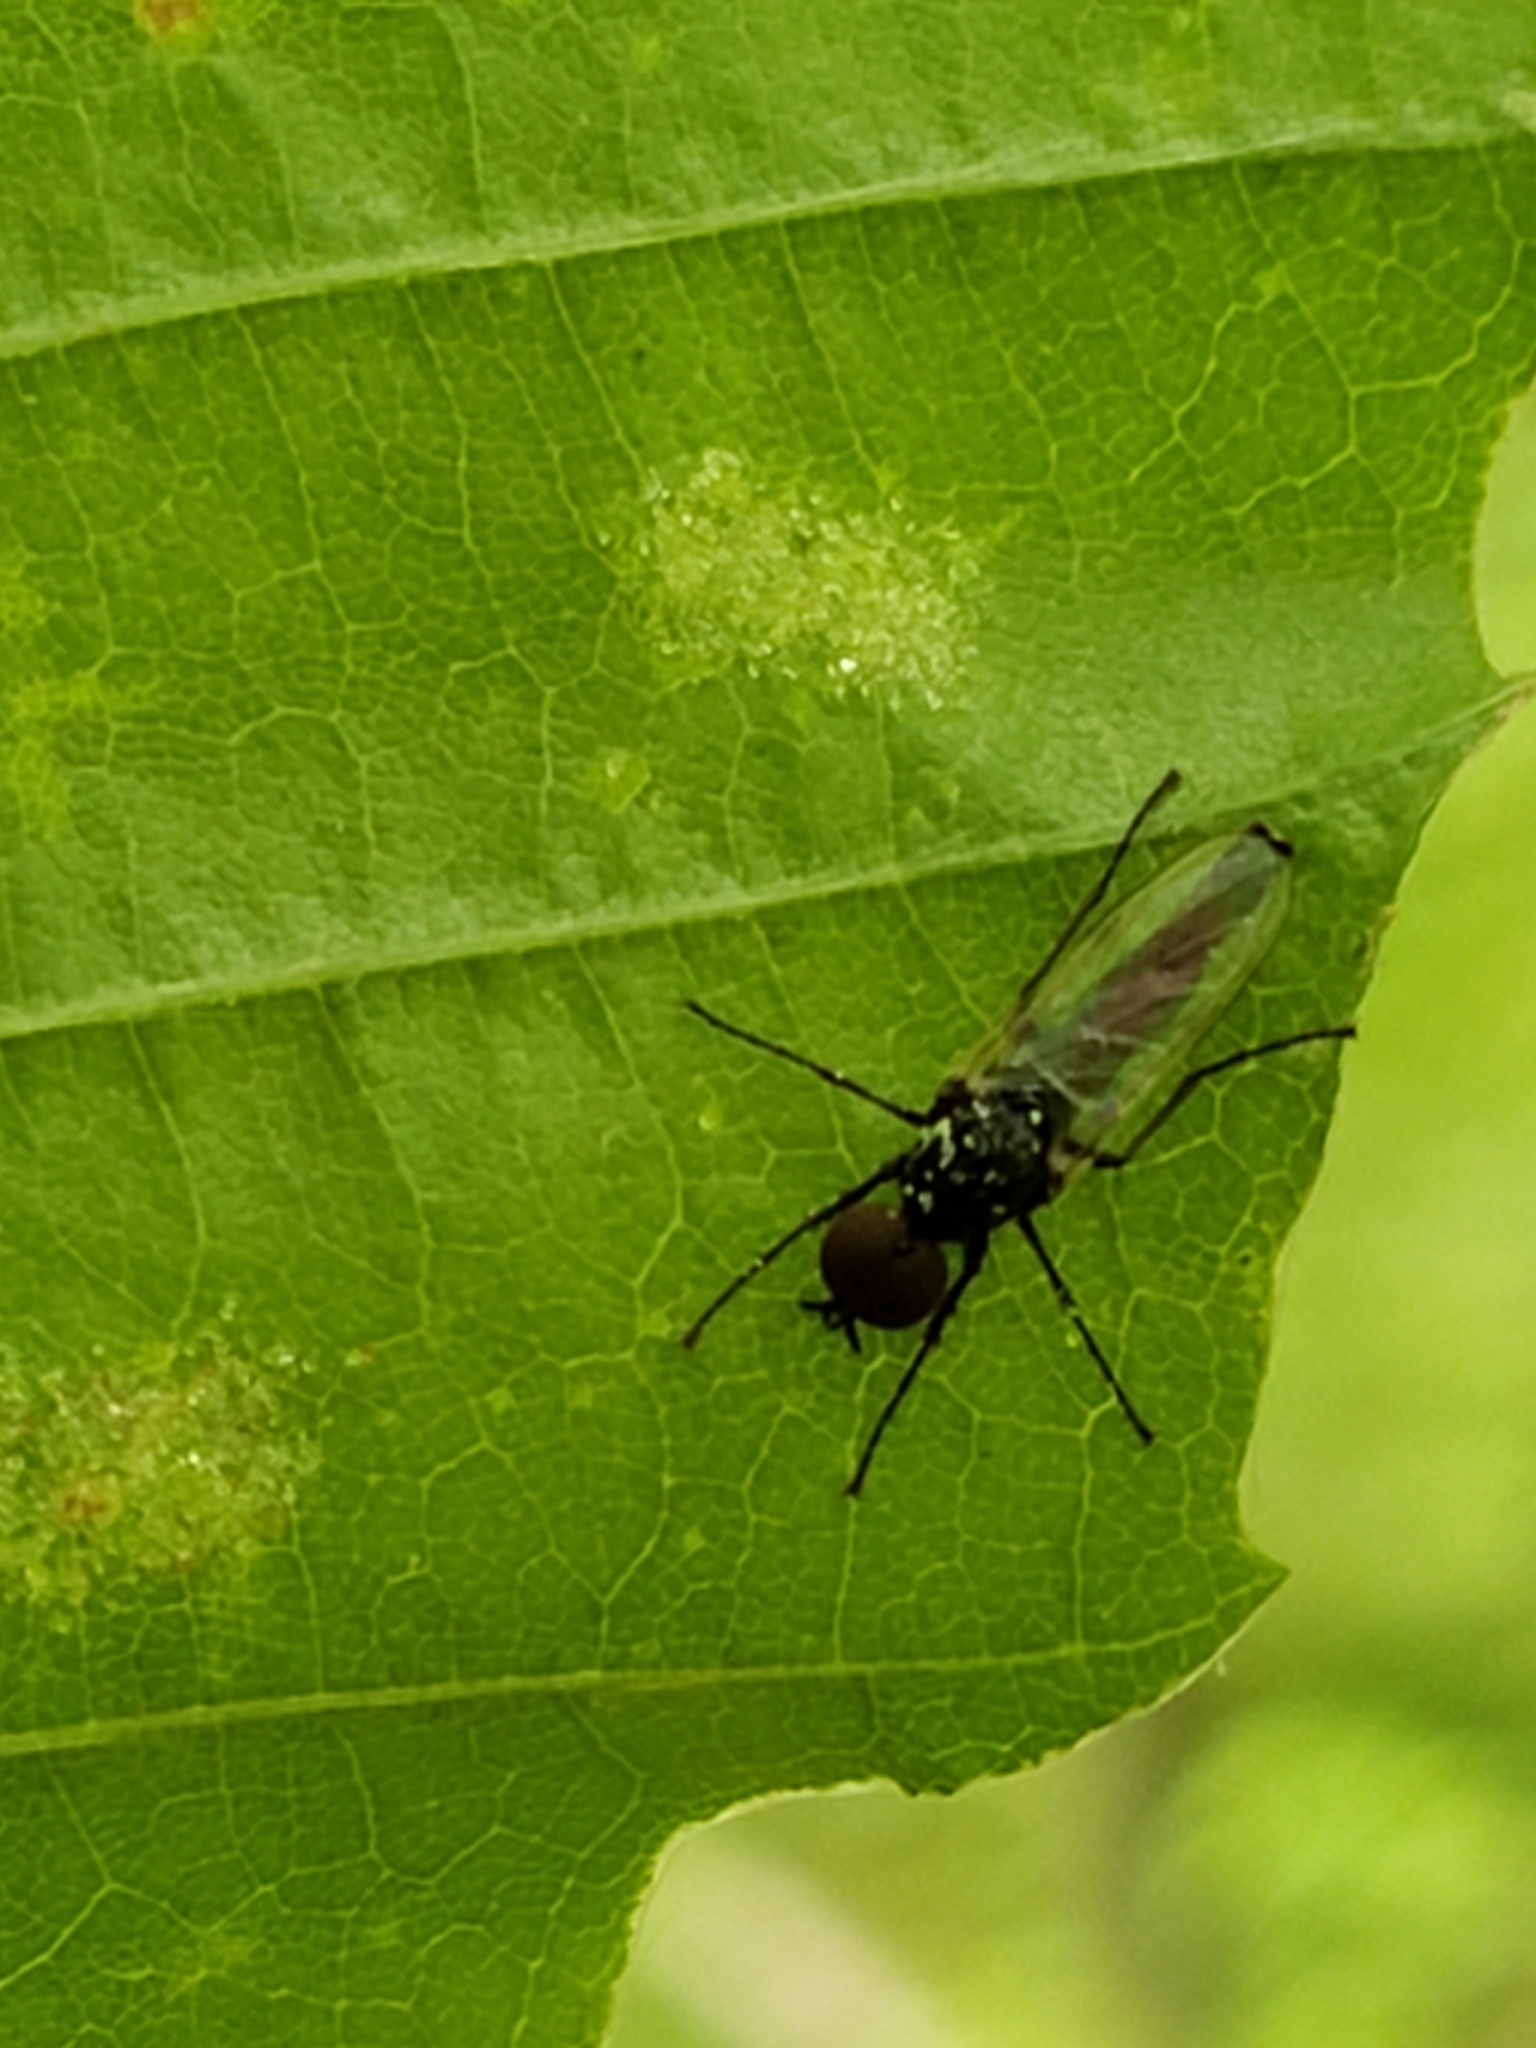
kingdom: Animalia
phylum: Arthropoda
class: Insecta
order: Diptera
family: Bibionidae
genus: Dilophus
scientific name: Dilophus
